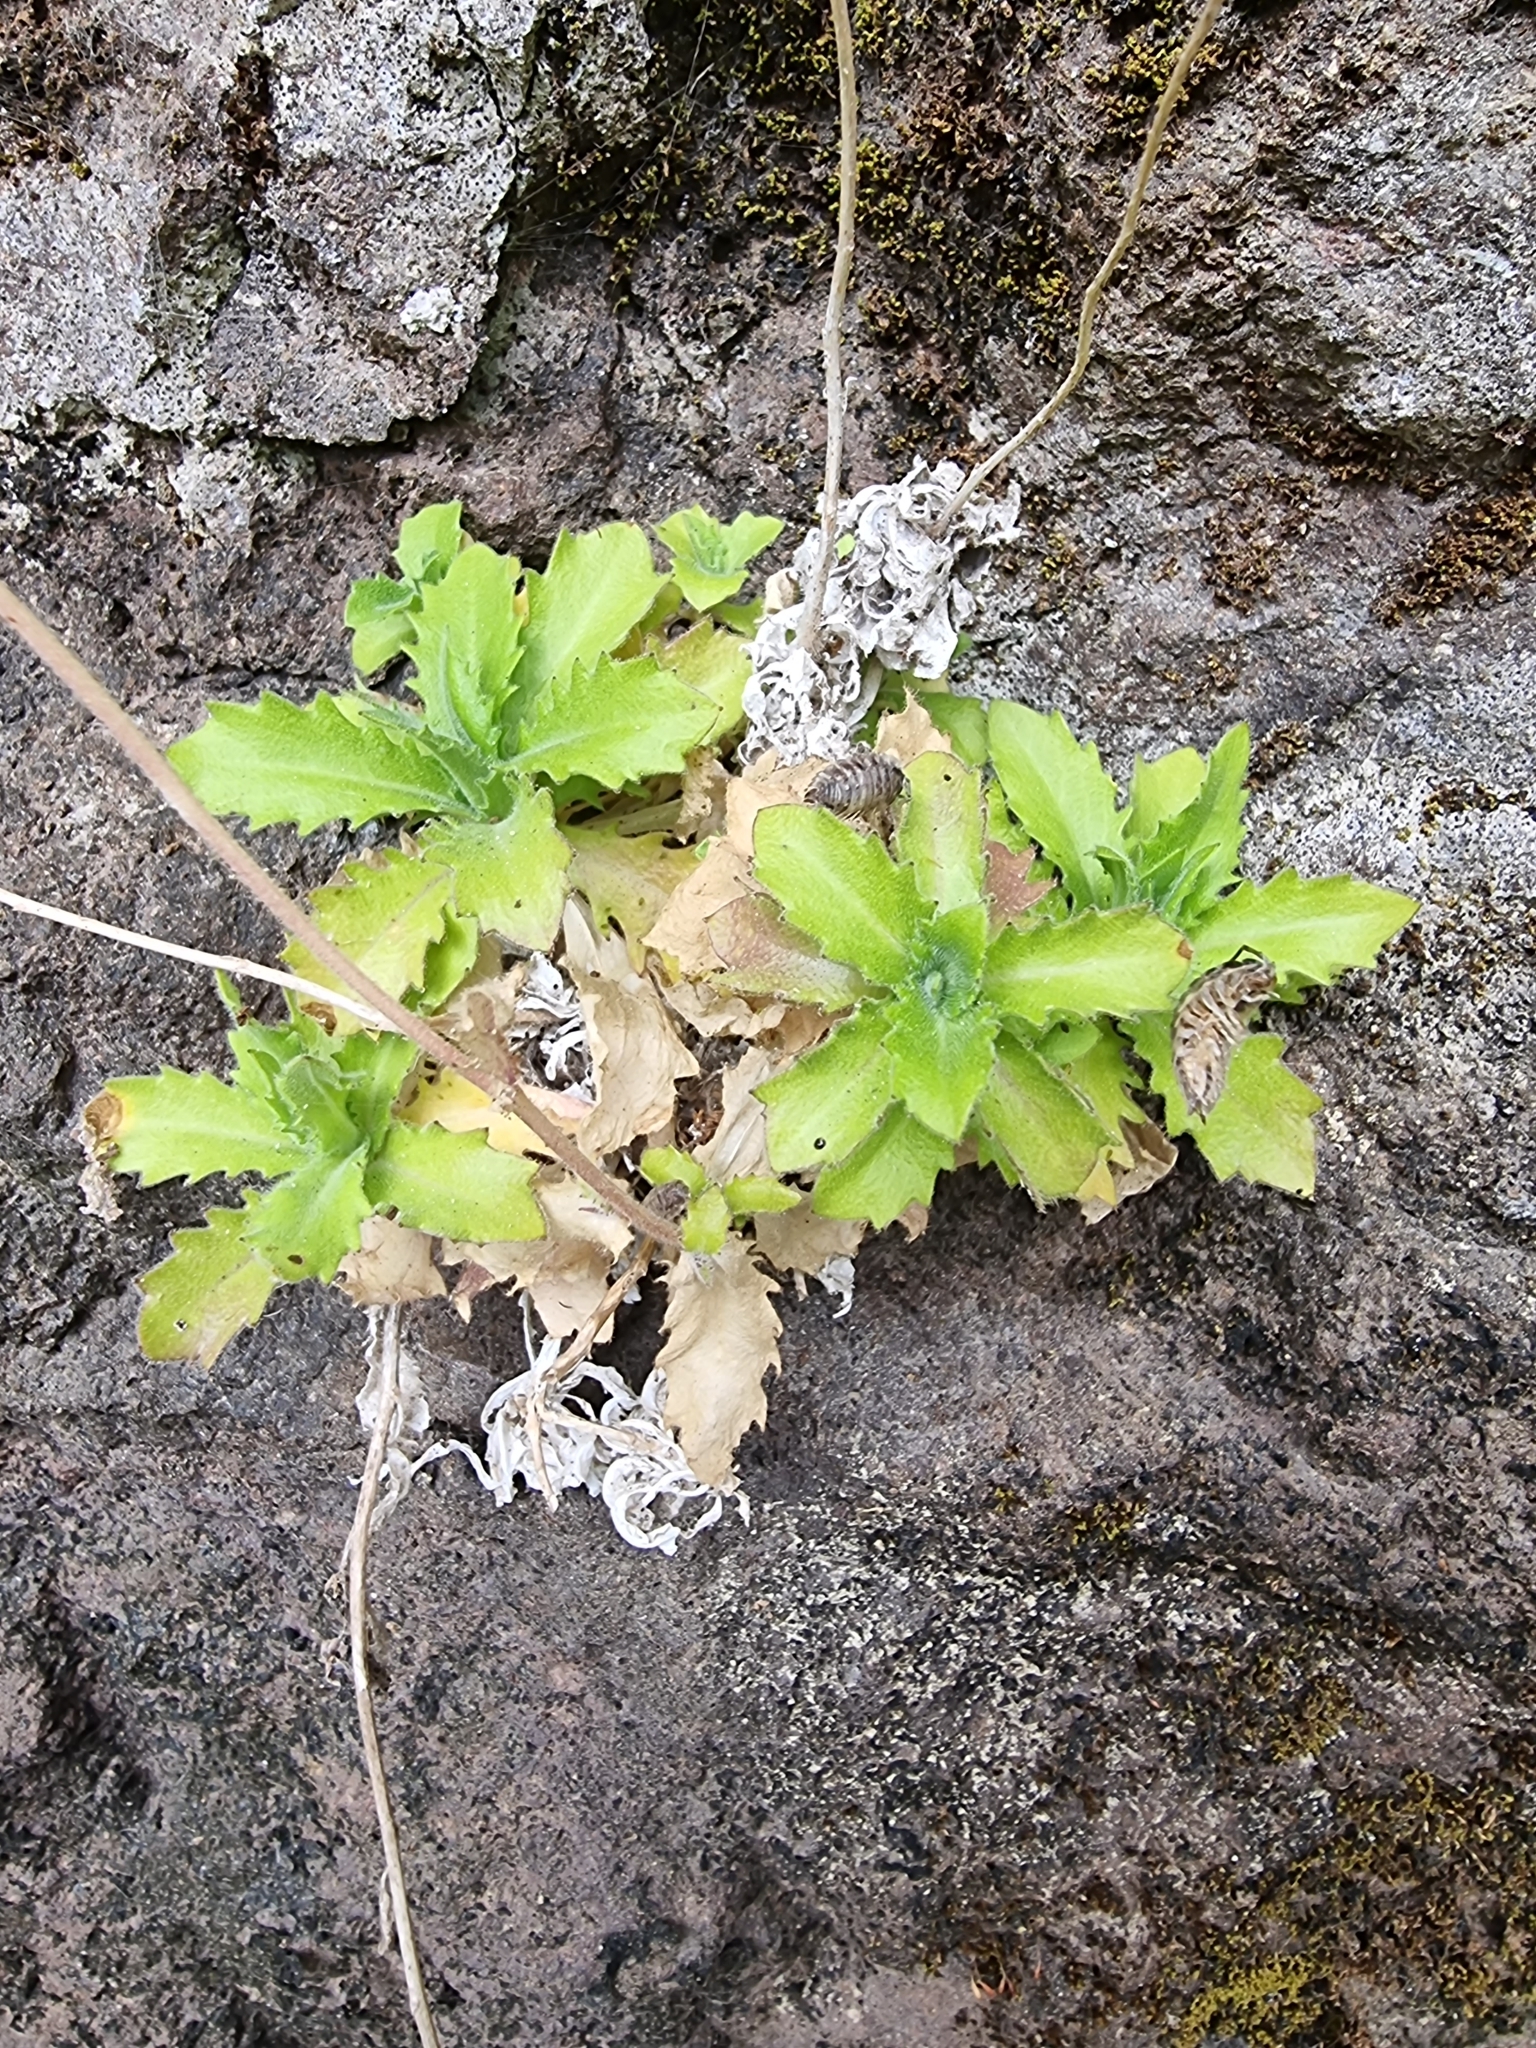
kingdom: Plantae
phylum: Tracheophyta
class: Magnoliopsida
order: Brassicales
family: Brassicaceae
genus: Arabis
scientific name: Arabis caucasica
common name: Gray rockcress
